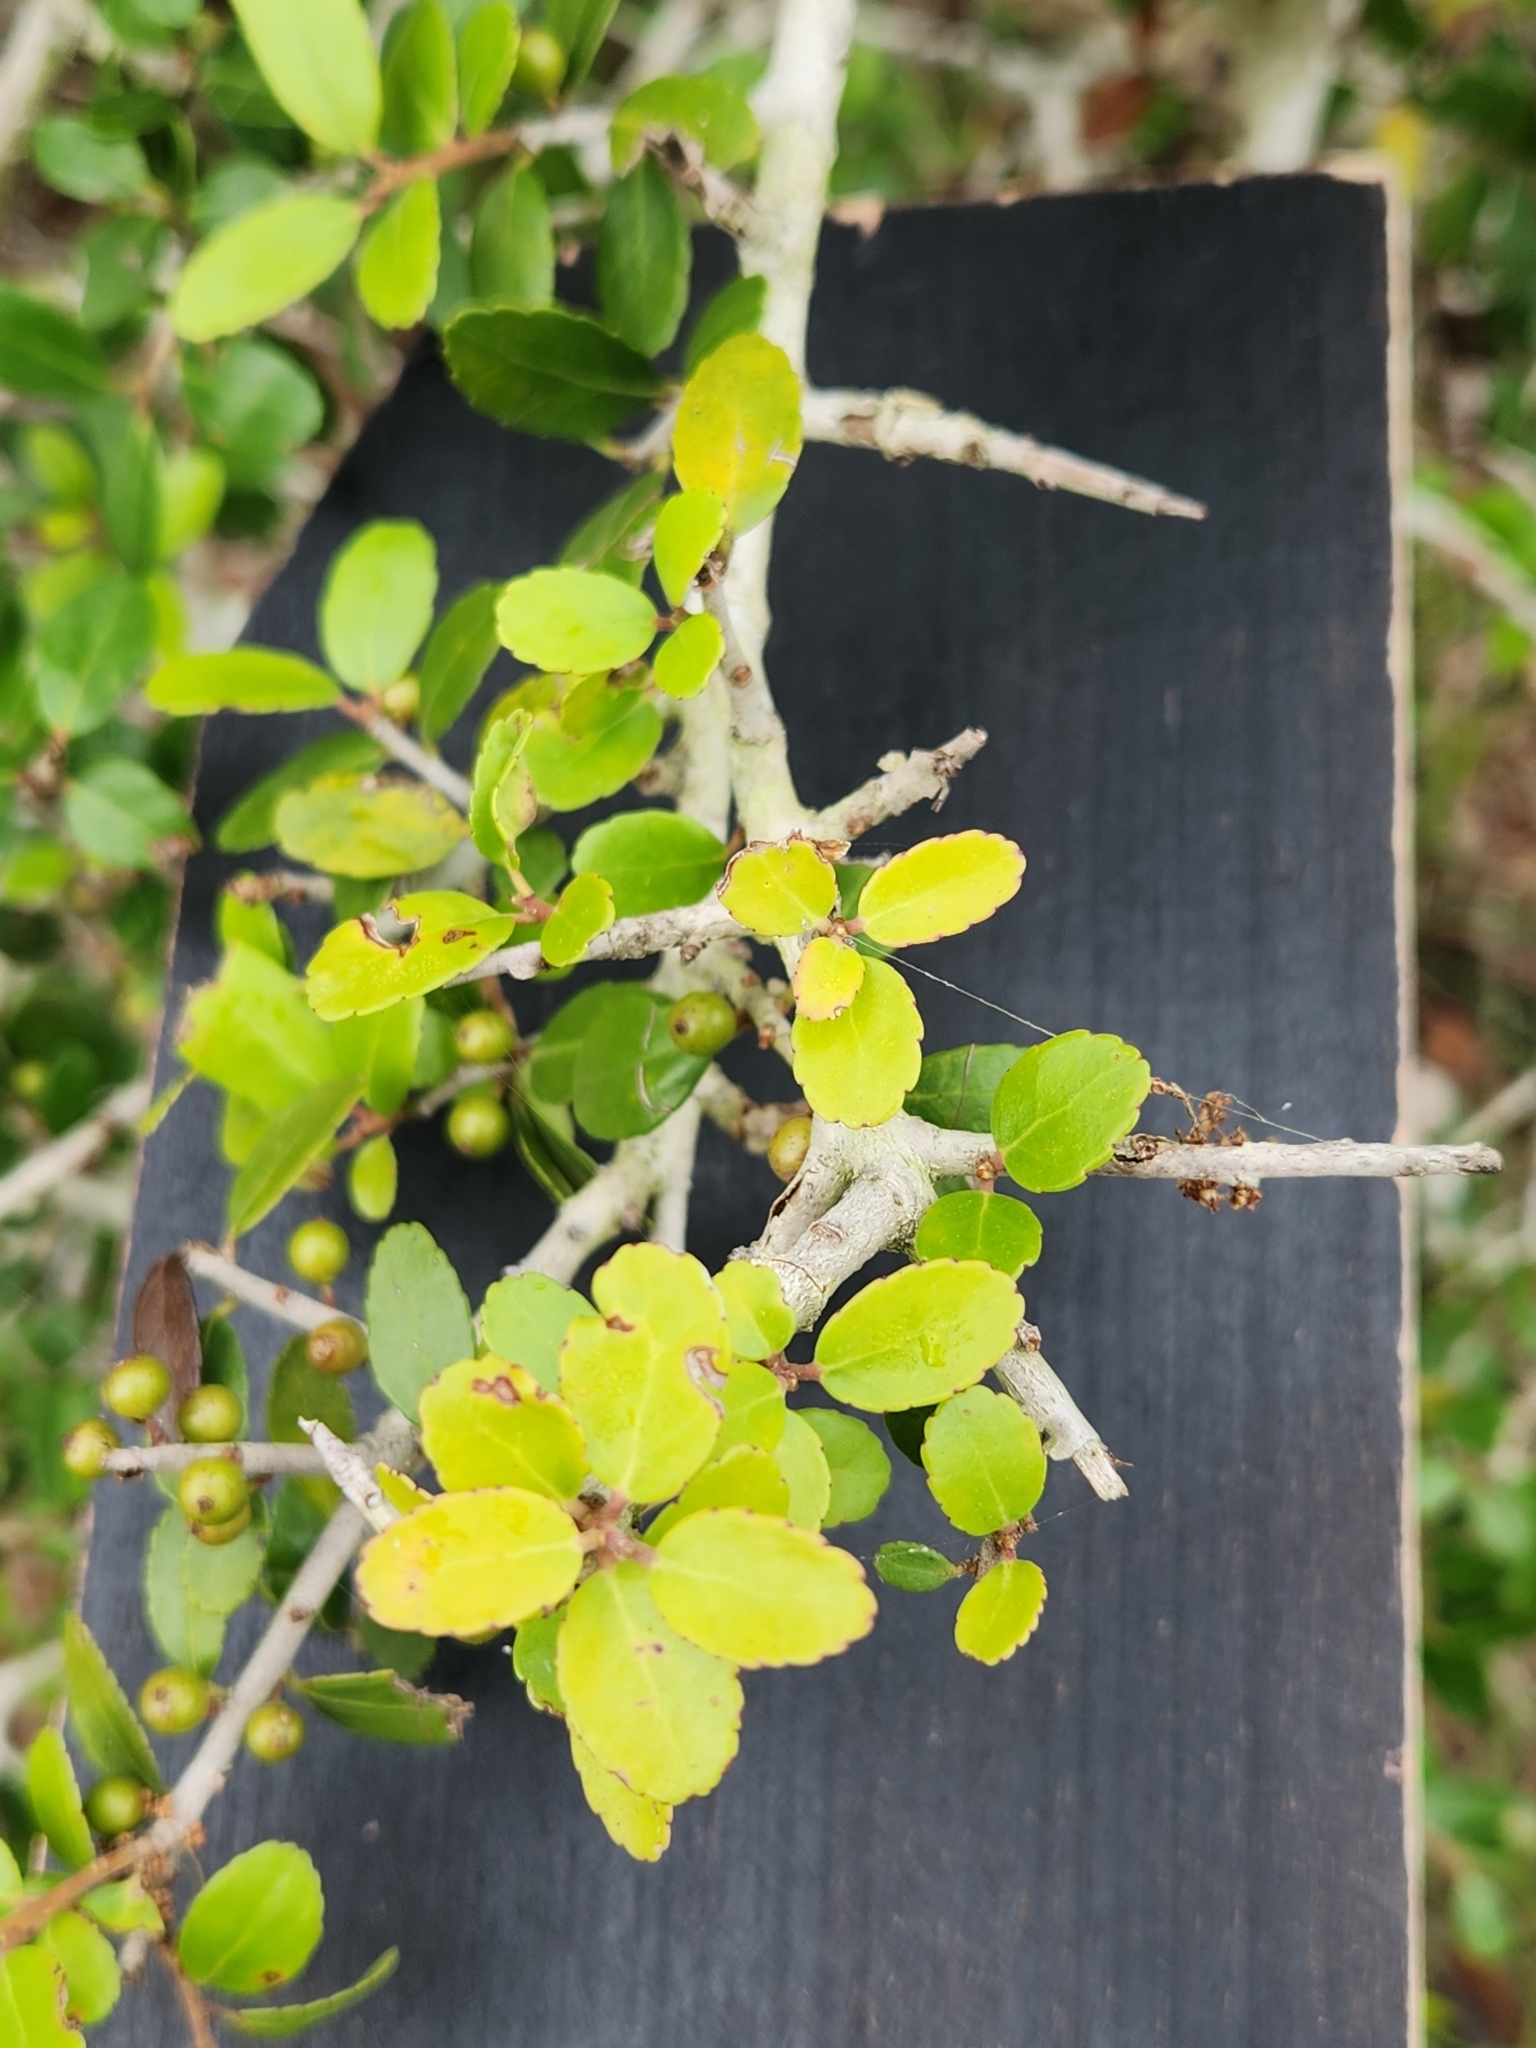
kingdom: Plantae
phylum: Tracheophyta
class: Magnoliopsida
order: Aquifoliales
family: Aquifoliaceae
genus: Ilex
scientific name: Ilex vomitoria
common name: Yaupon holly
